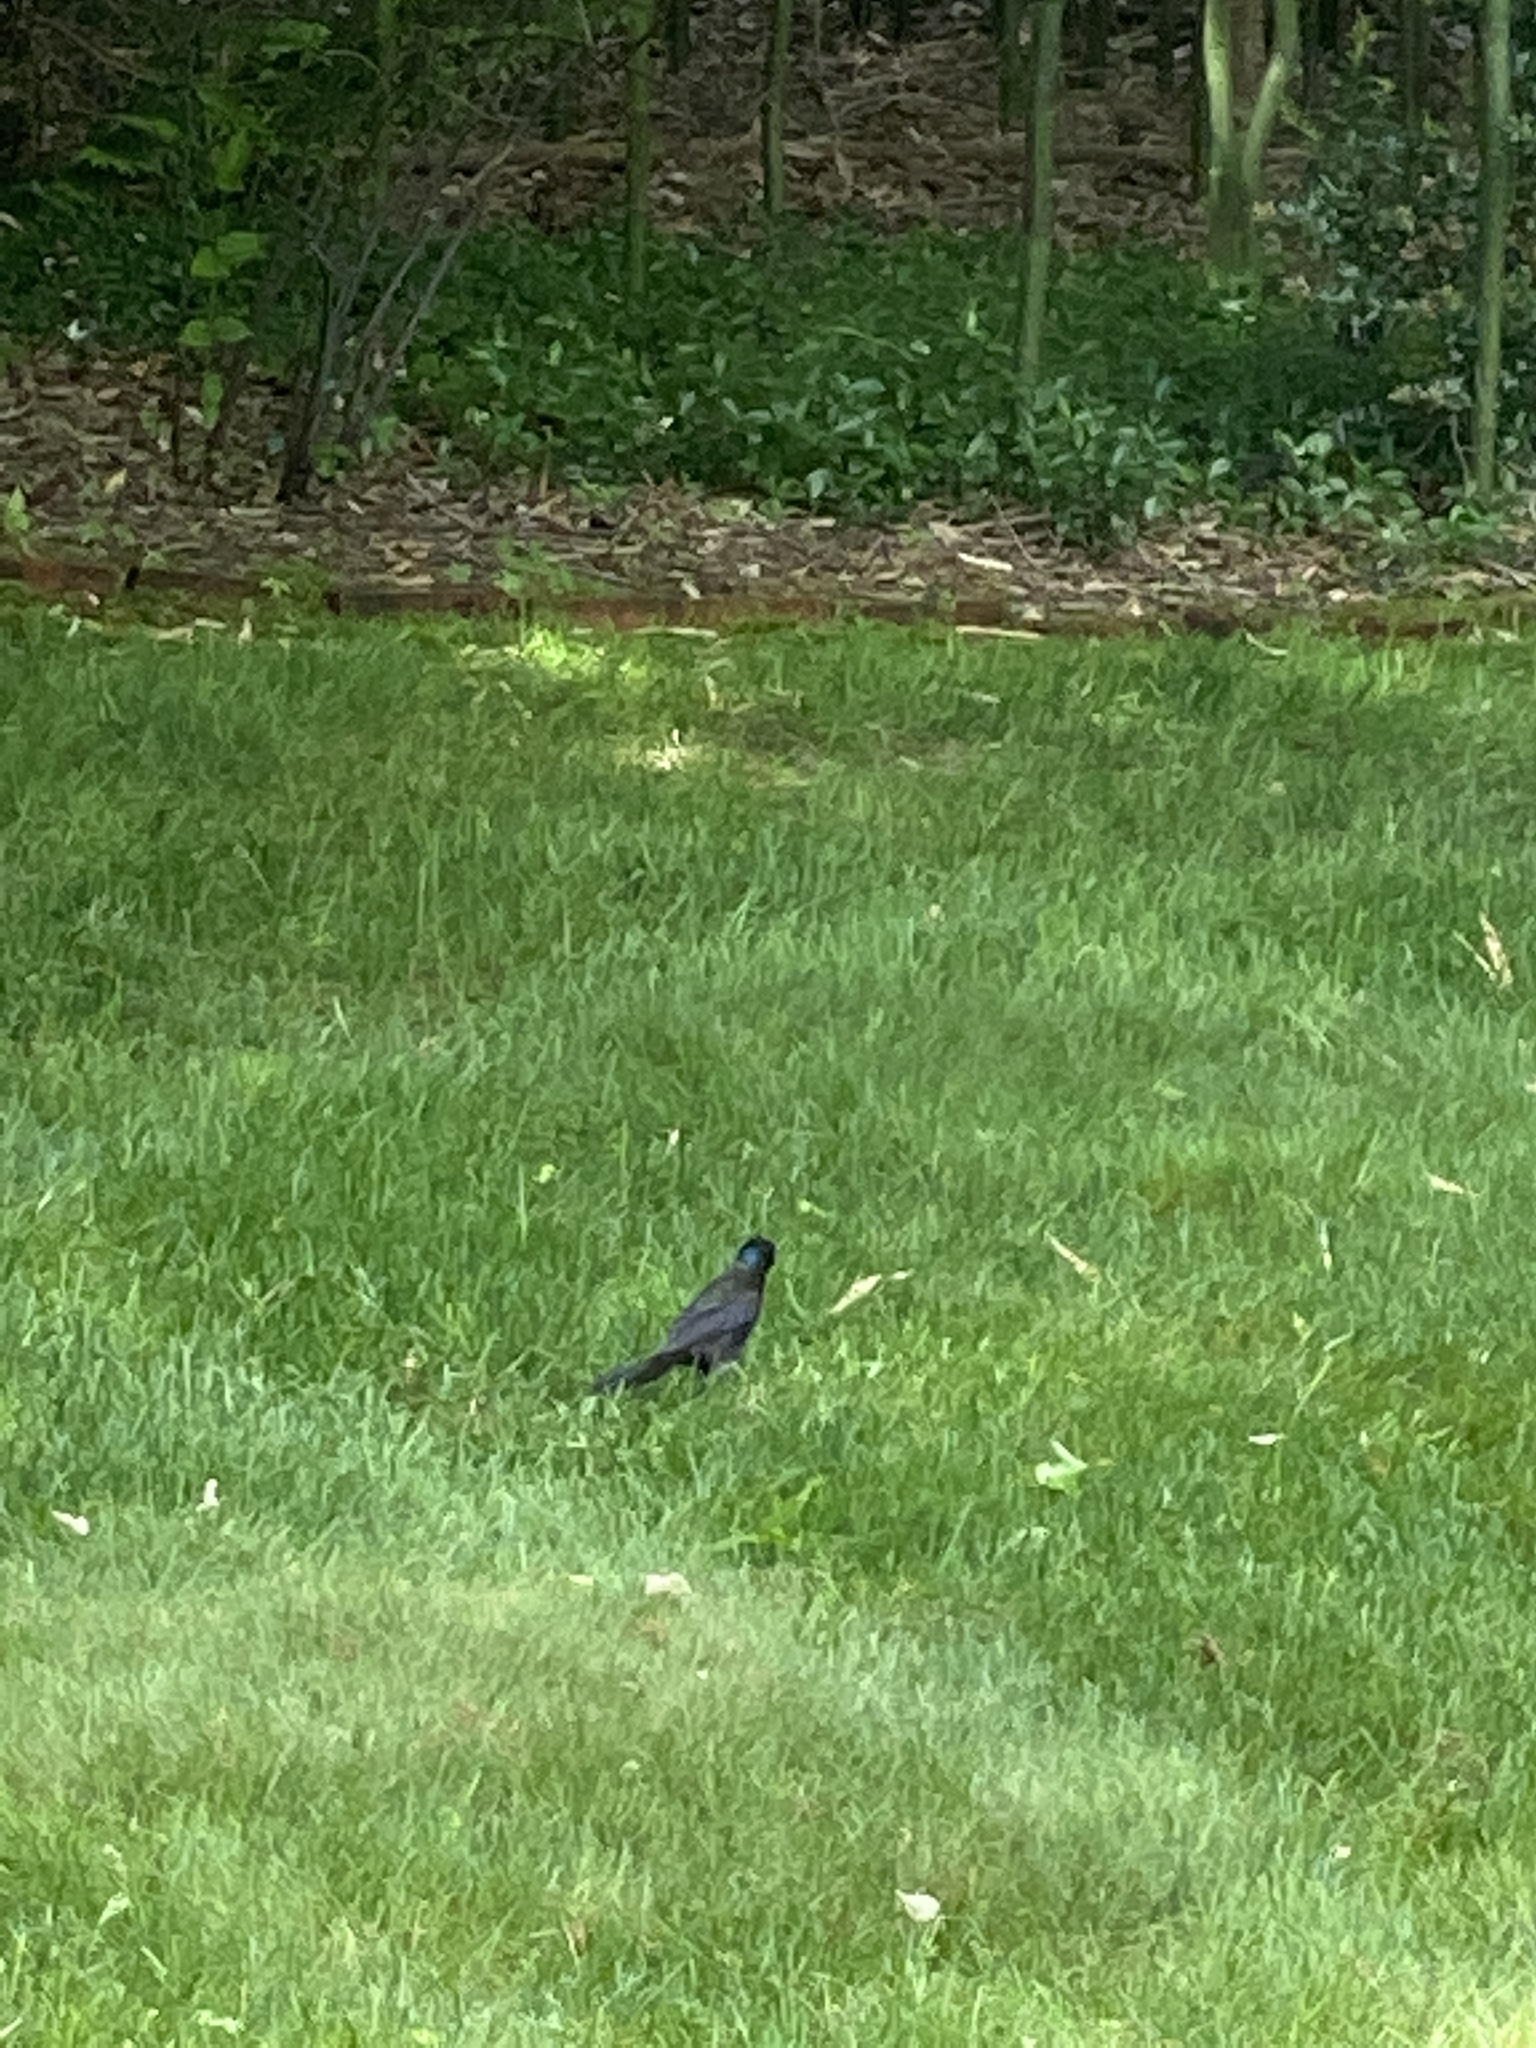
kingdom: Animalia
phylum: Chordata
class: Aves
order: Passeriformes
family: Icteridae
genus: Quiscalus
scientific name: Quiscalus quiscula
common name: Common grackle
